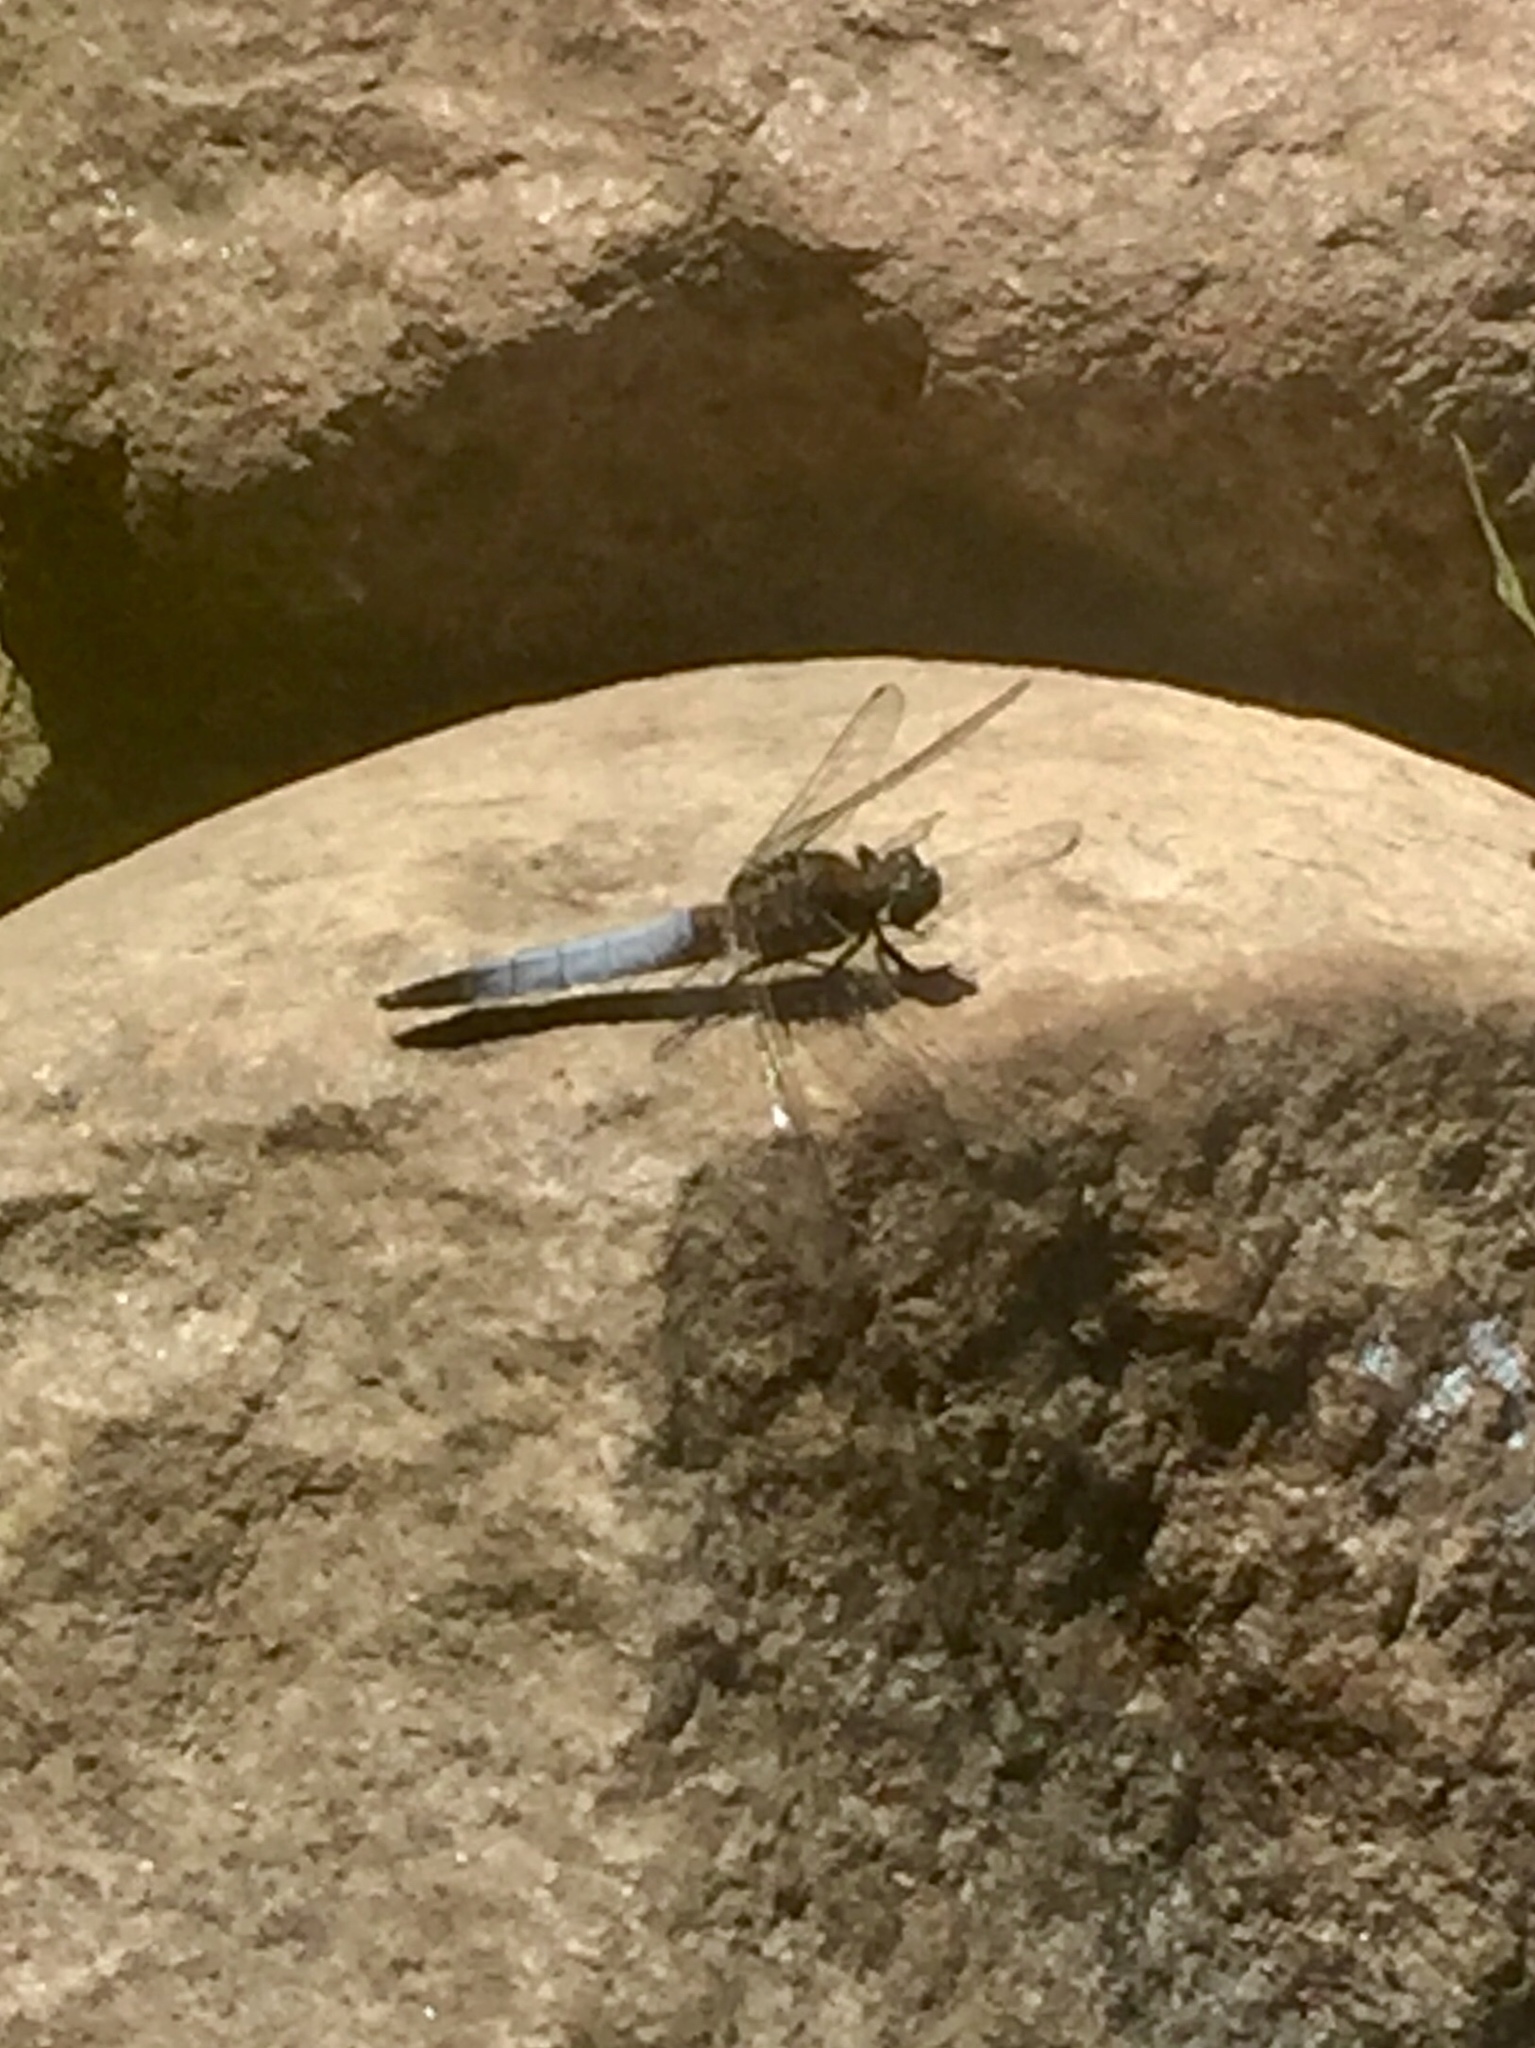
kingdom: Animalia
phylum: Arthropoda
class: Insecta
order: Odonata
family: Libellulidae
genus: Orthetrum
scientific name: Orthetrum cancellatum
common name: Black-tailed skimmer
